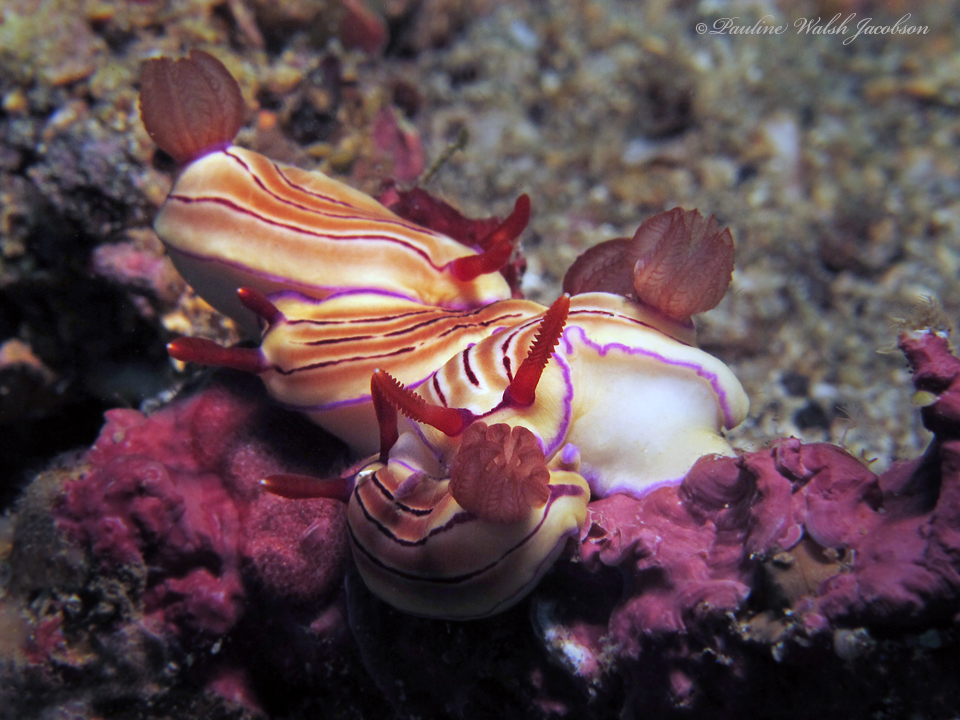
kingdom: Animalia
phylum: Mollusca
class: Gastropoda
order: Nudibranchia
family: Chromodorididae
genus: Hypselodoris
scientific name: Hypselodoris emma
